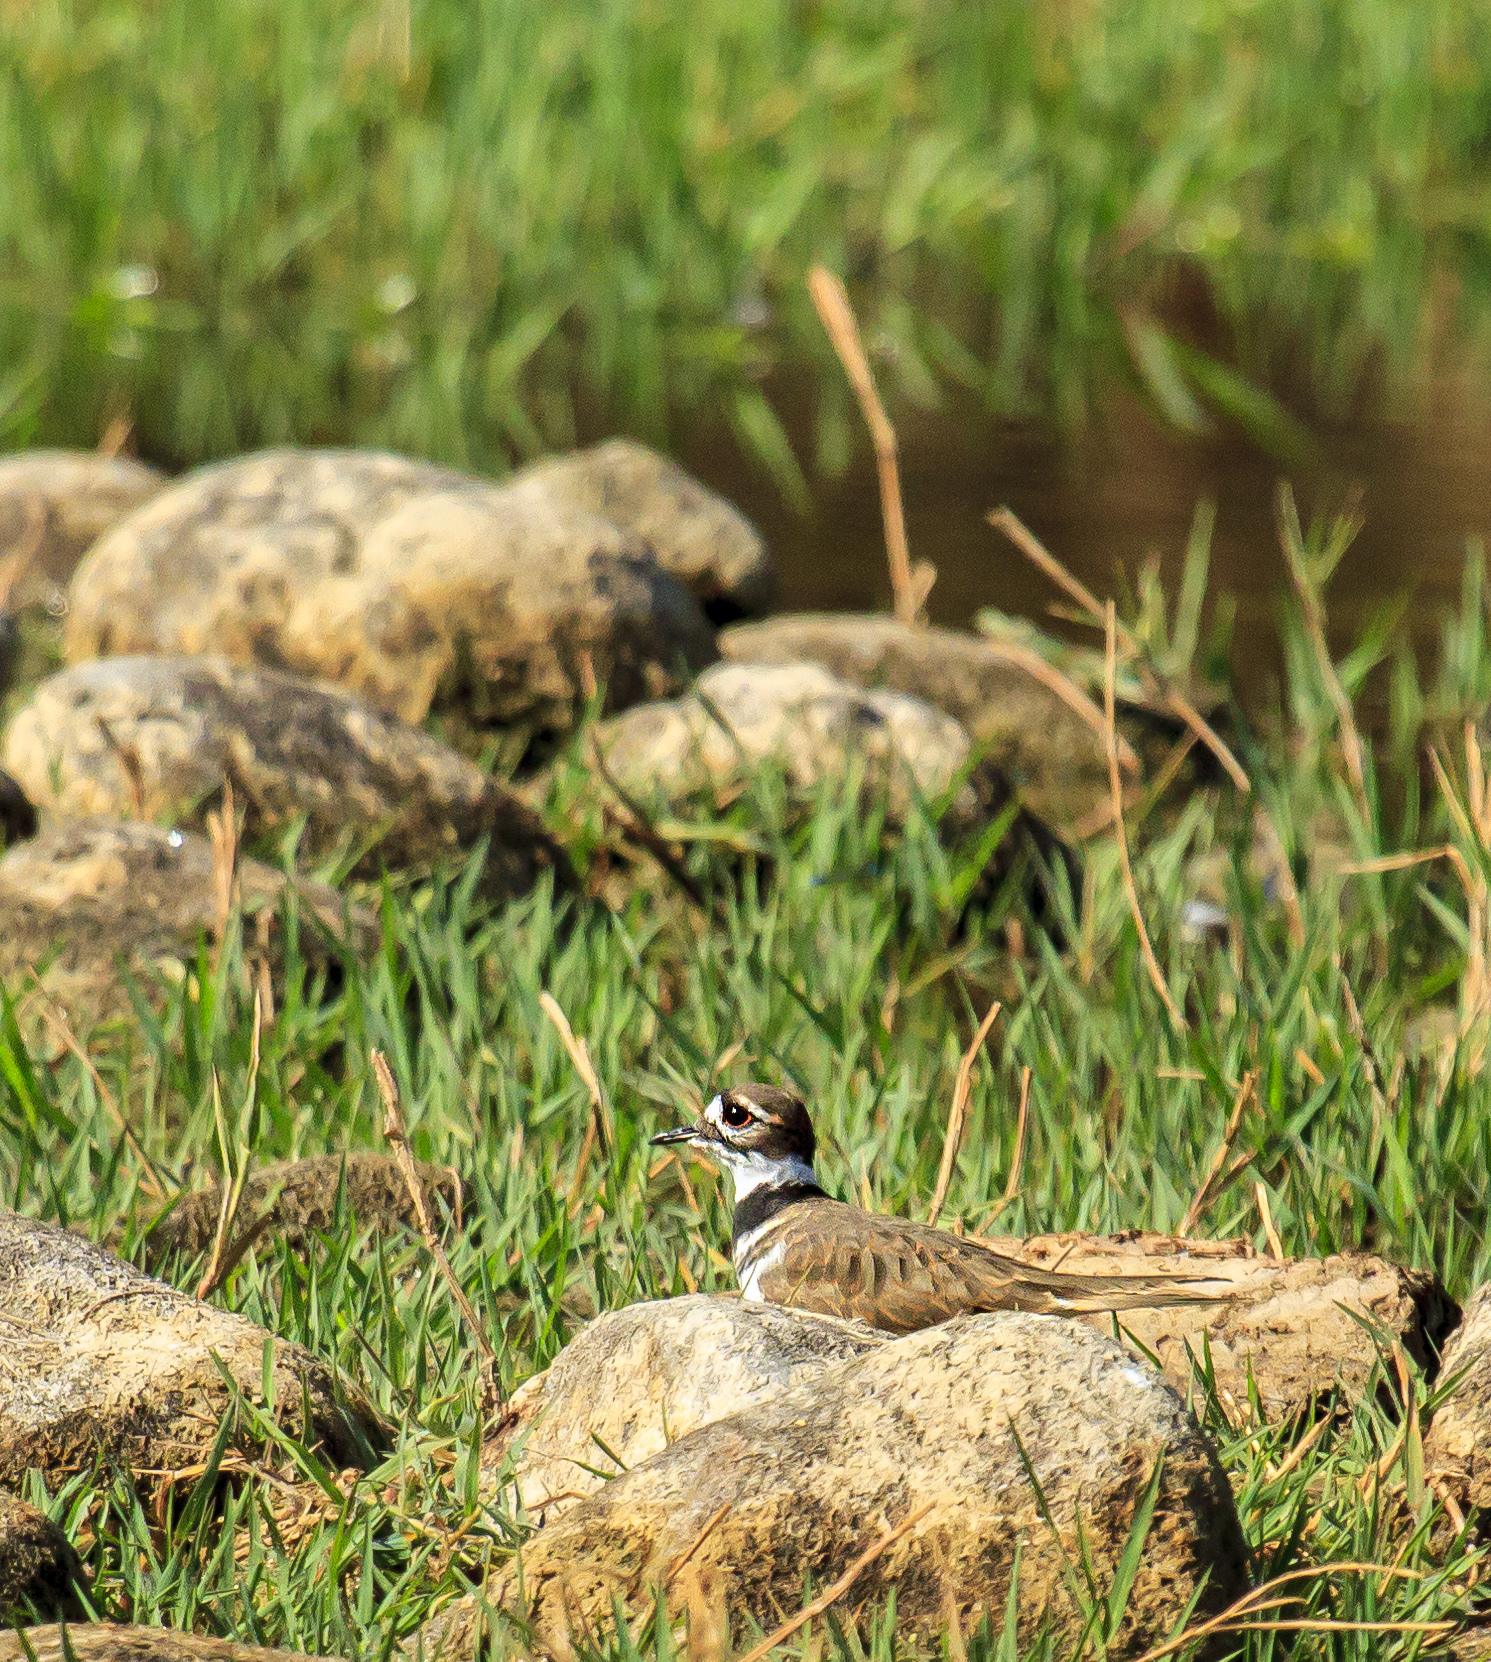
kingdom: Animalia
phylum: Chordata
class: Aves
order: Charadriiformes
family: Charadriidae
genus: Charadrius
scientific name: Charadrius vociferus
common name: Killdeer
